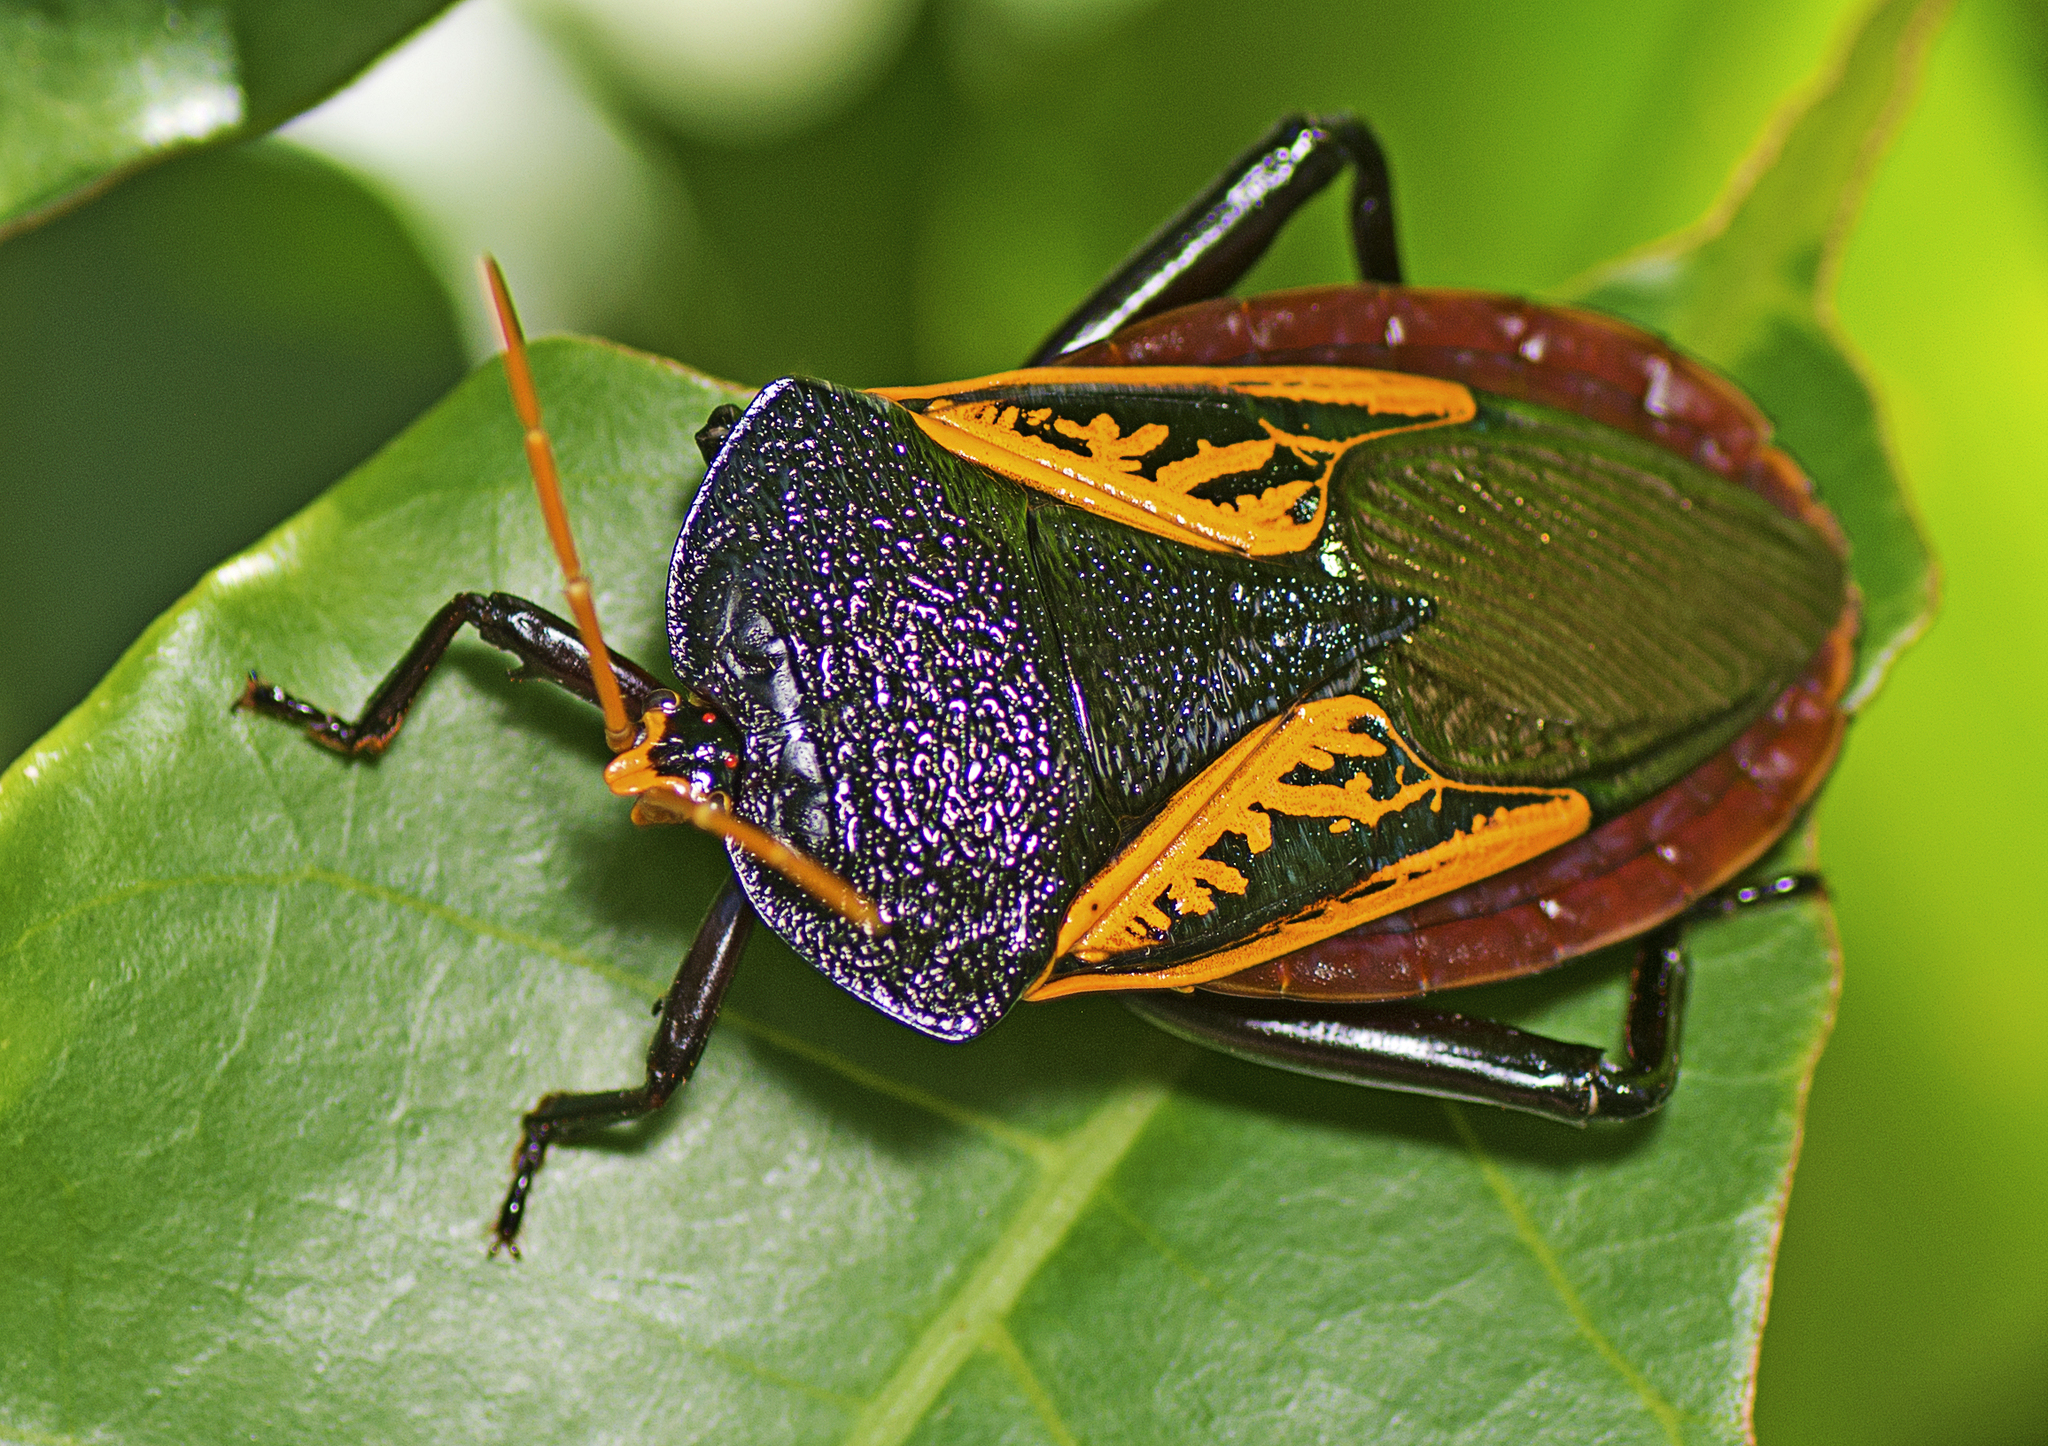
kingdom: Animalia
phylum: Arthropoda
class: Insecta
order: Hemiptera
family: Tessaratomidae
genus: Oncomeris
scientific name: Oncomeris flavicornis
